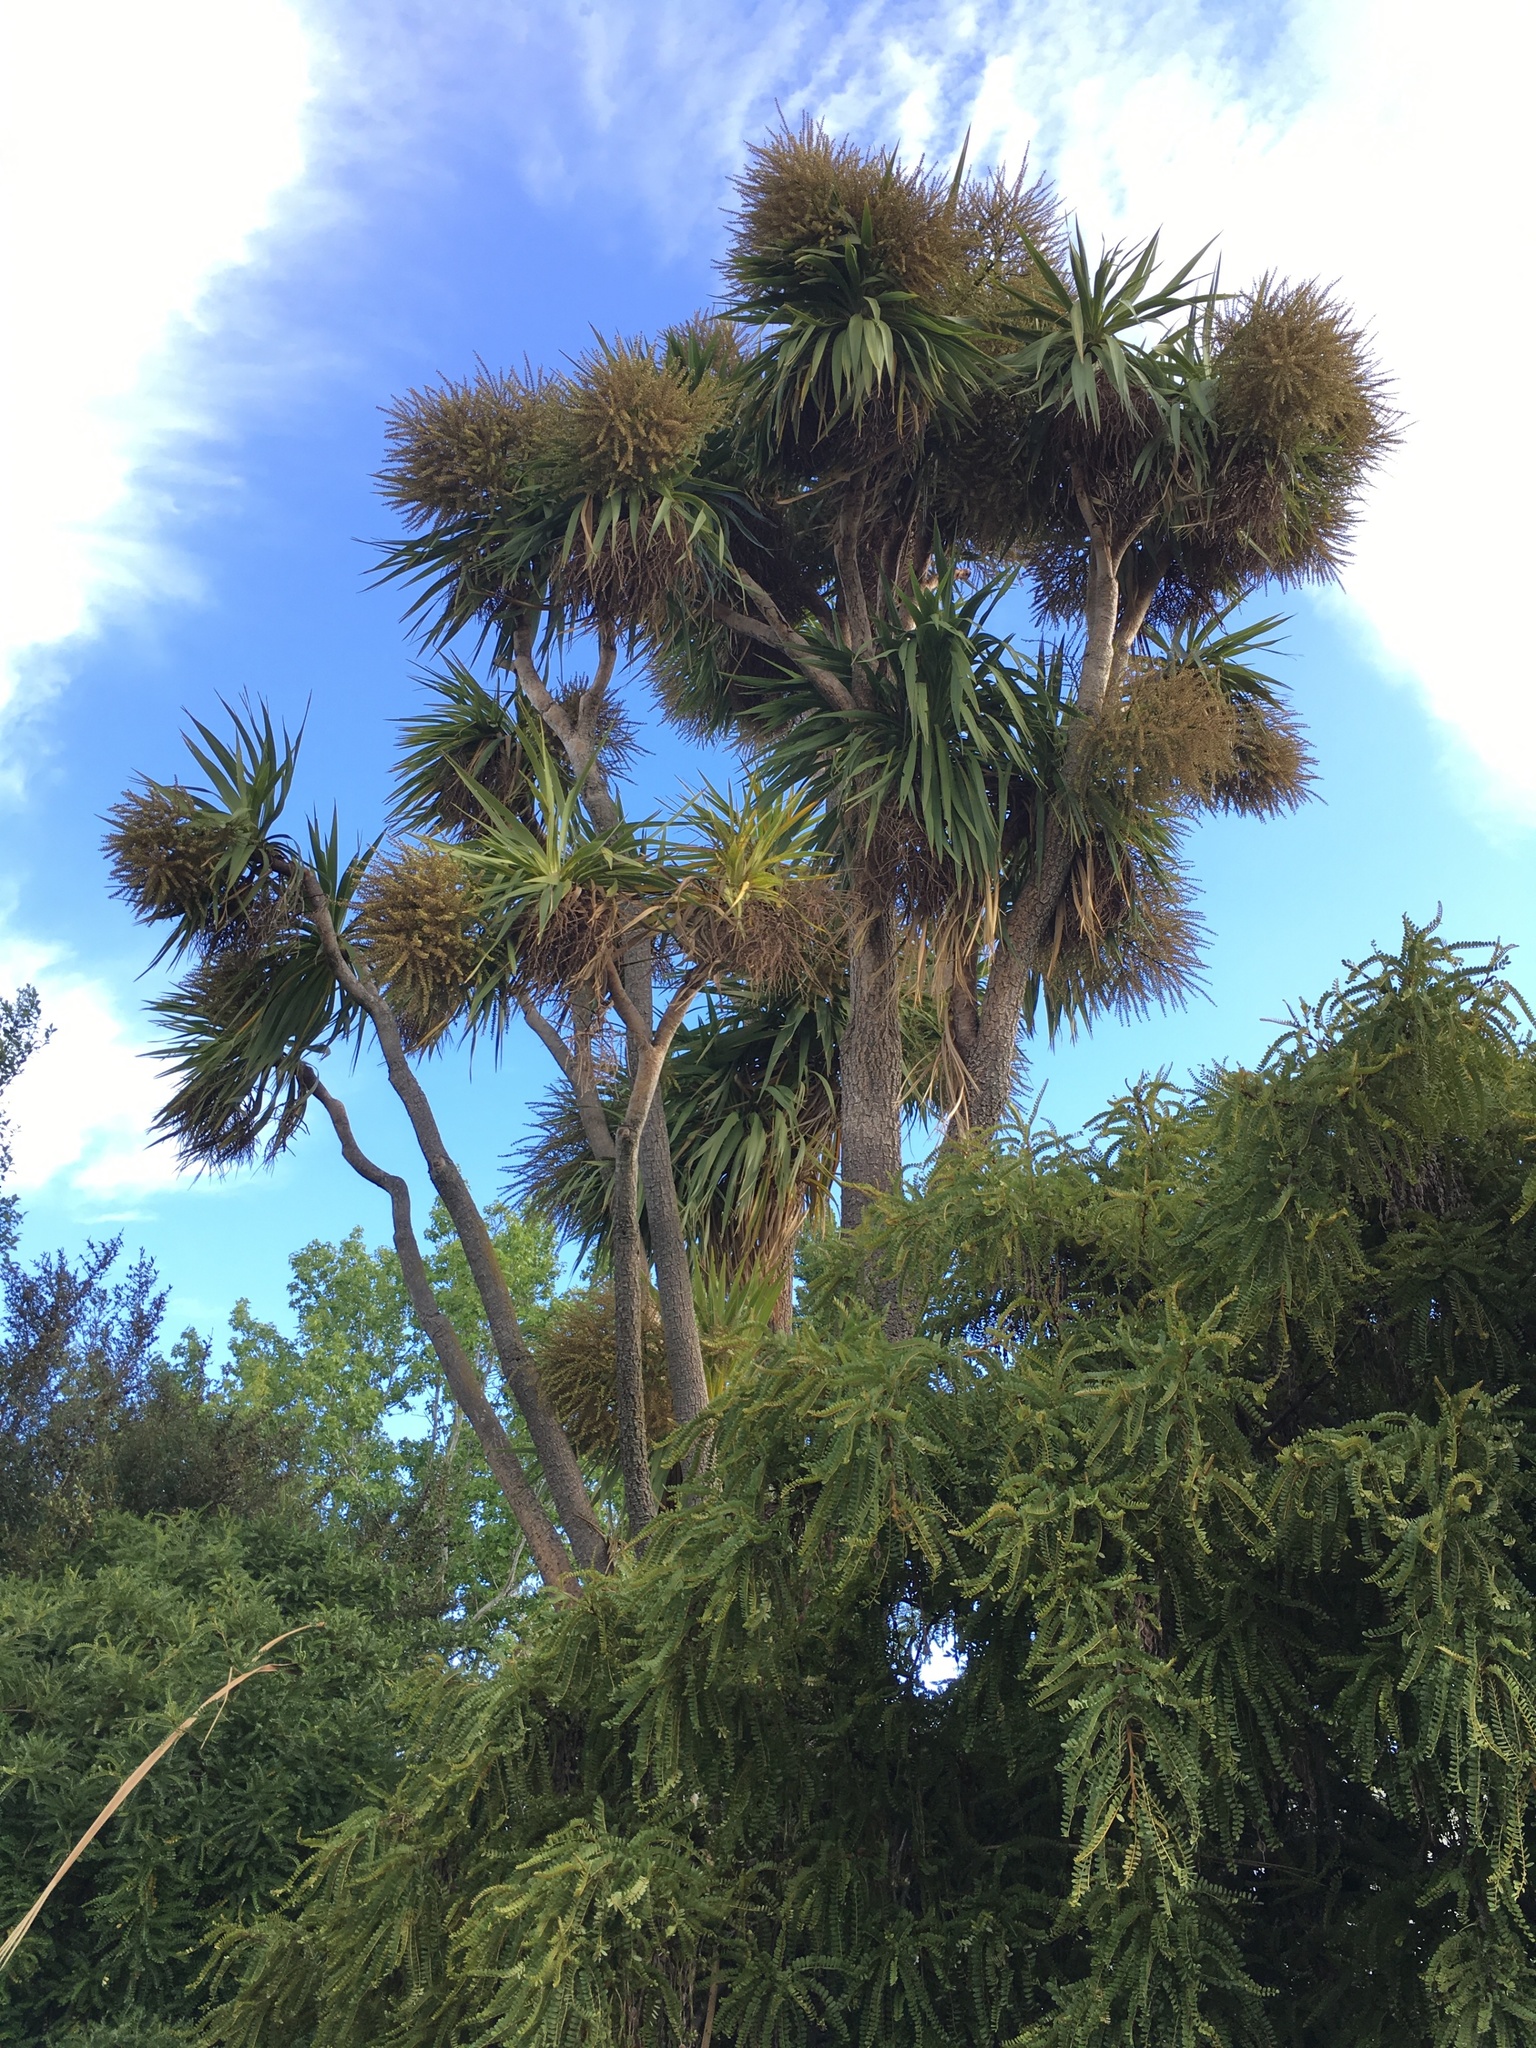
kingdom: Plantae
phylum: Tracheophyta
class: Liliopsida
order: Asparagales
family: Asparagaceae
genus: Cordyline
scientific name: Cordyline australis
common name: Cabbage-palm
